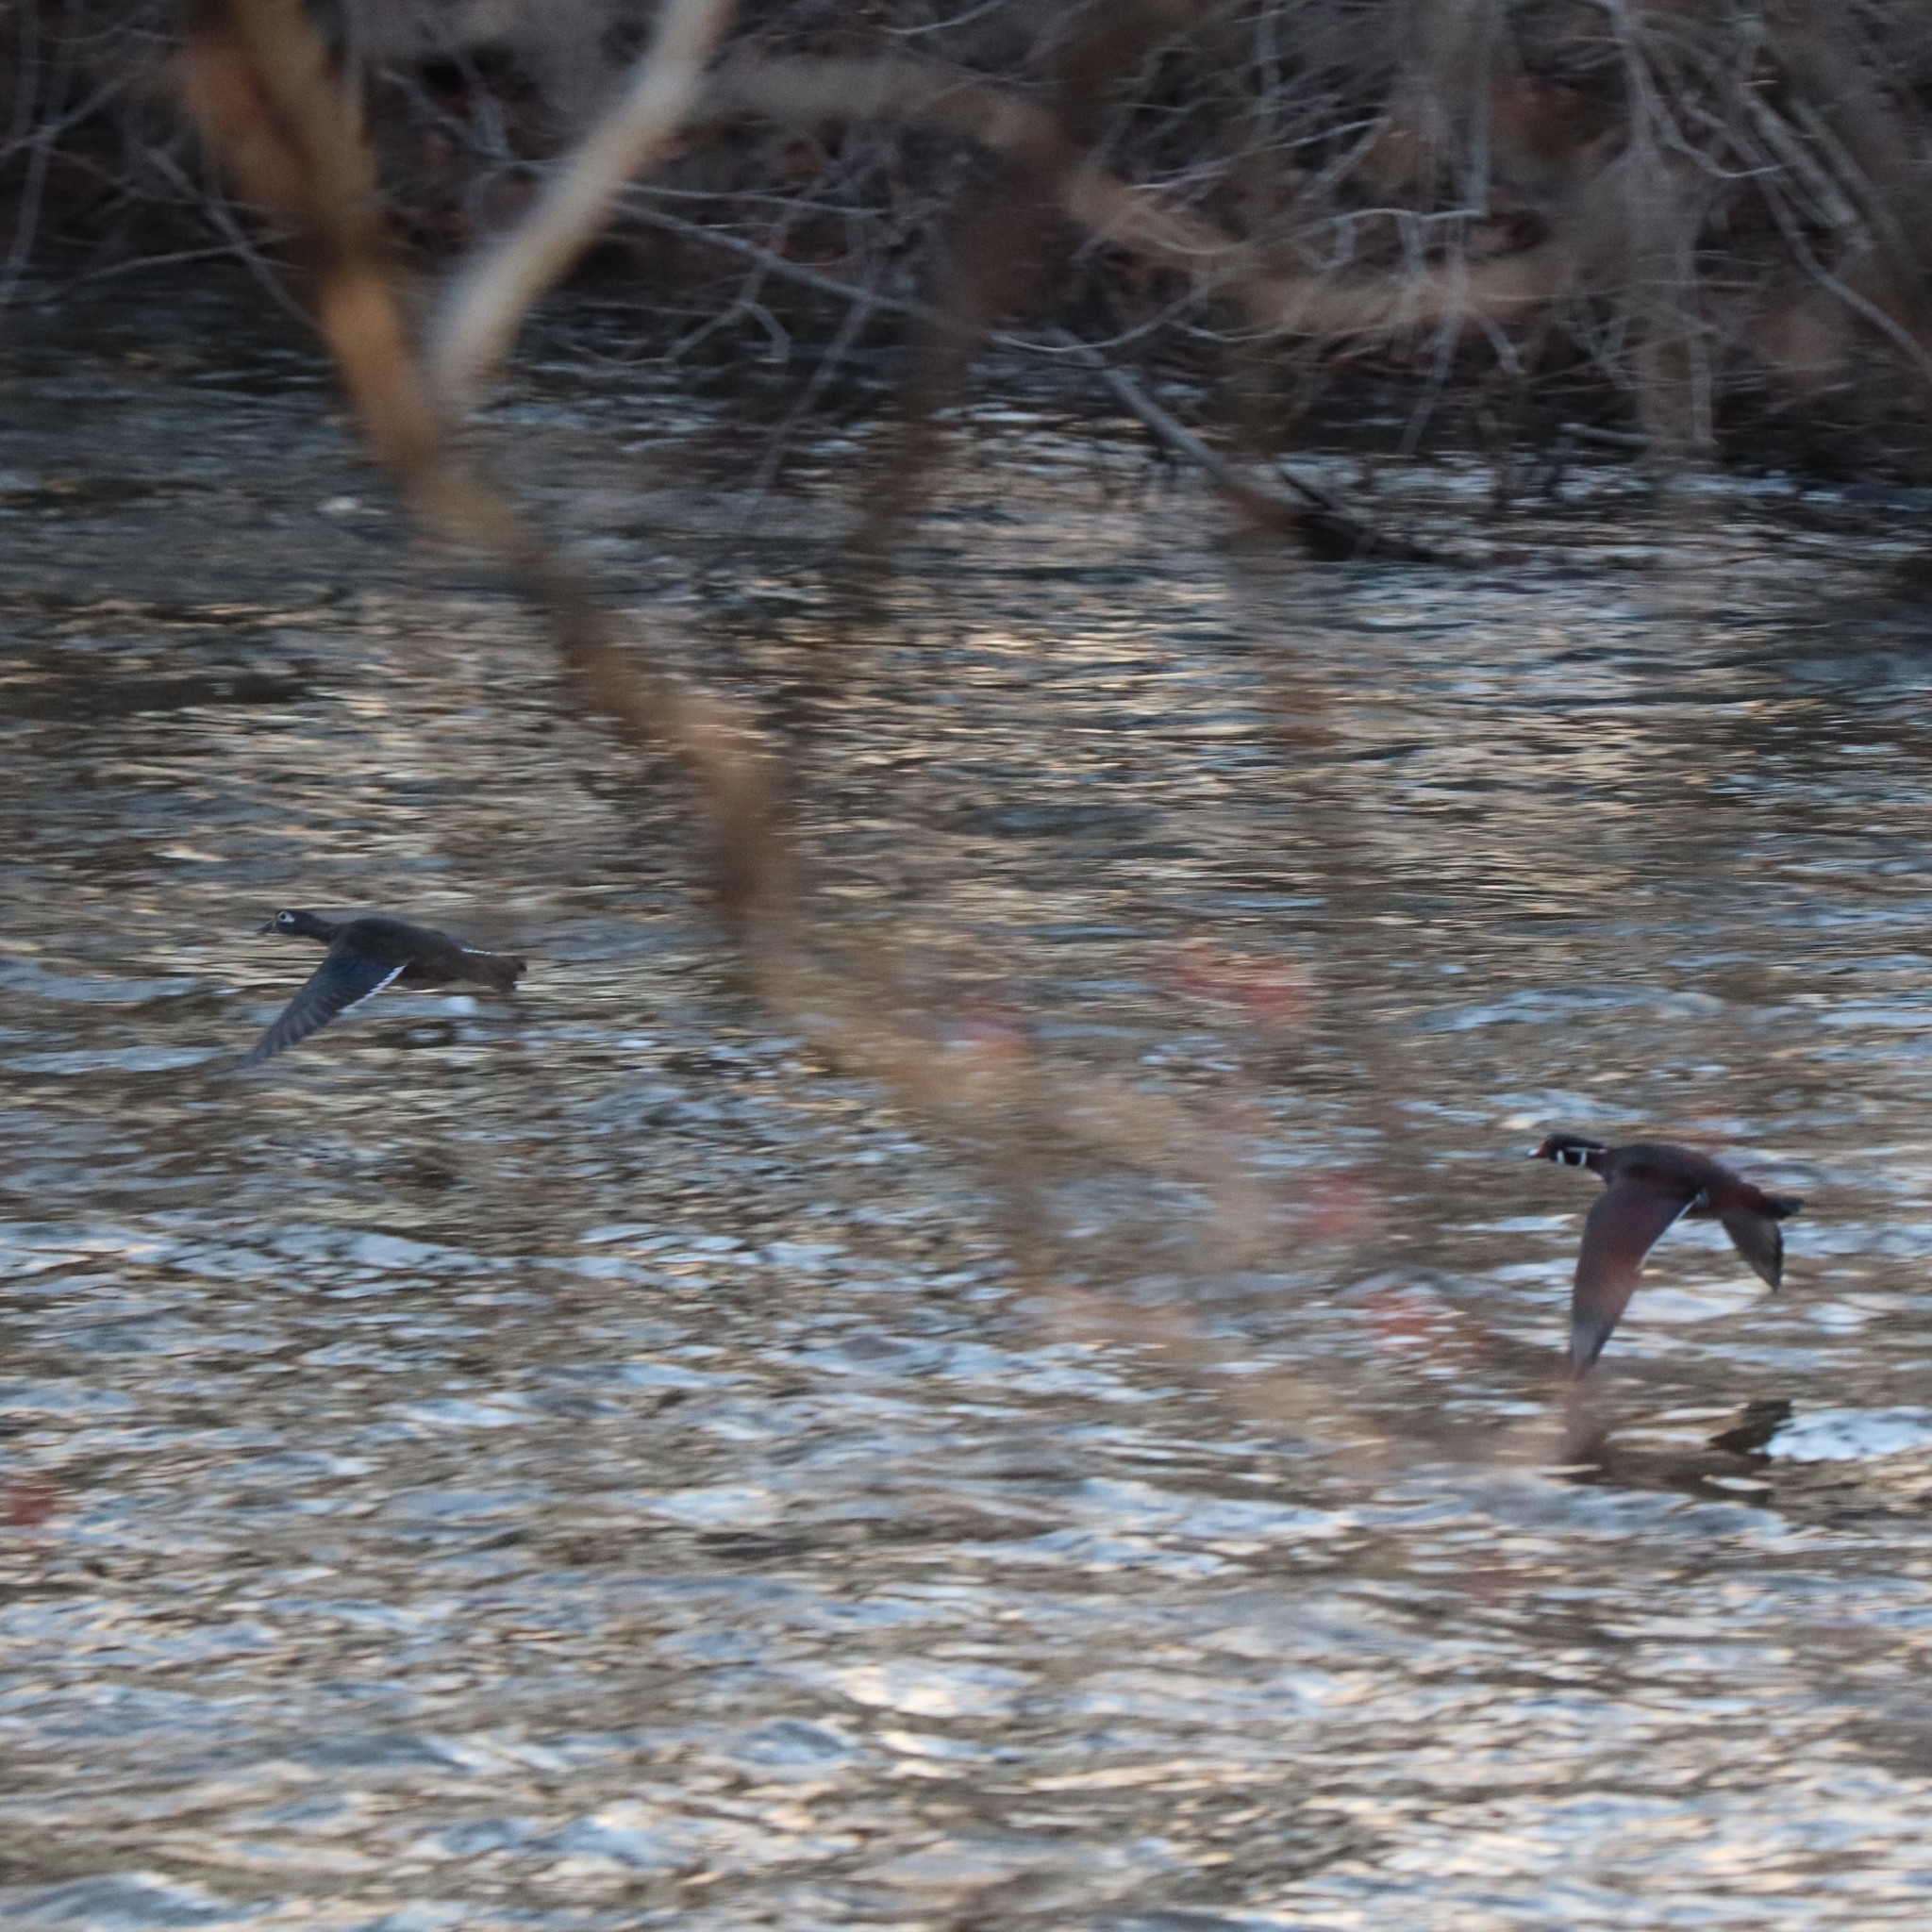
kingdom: Animalia
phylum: Chordata
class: Aves
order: Anseriformes
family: Anatidae
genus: Aix
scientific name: Aix sponsa
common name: Wood duck
